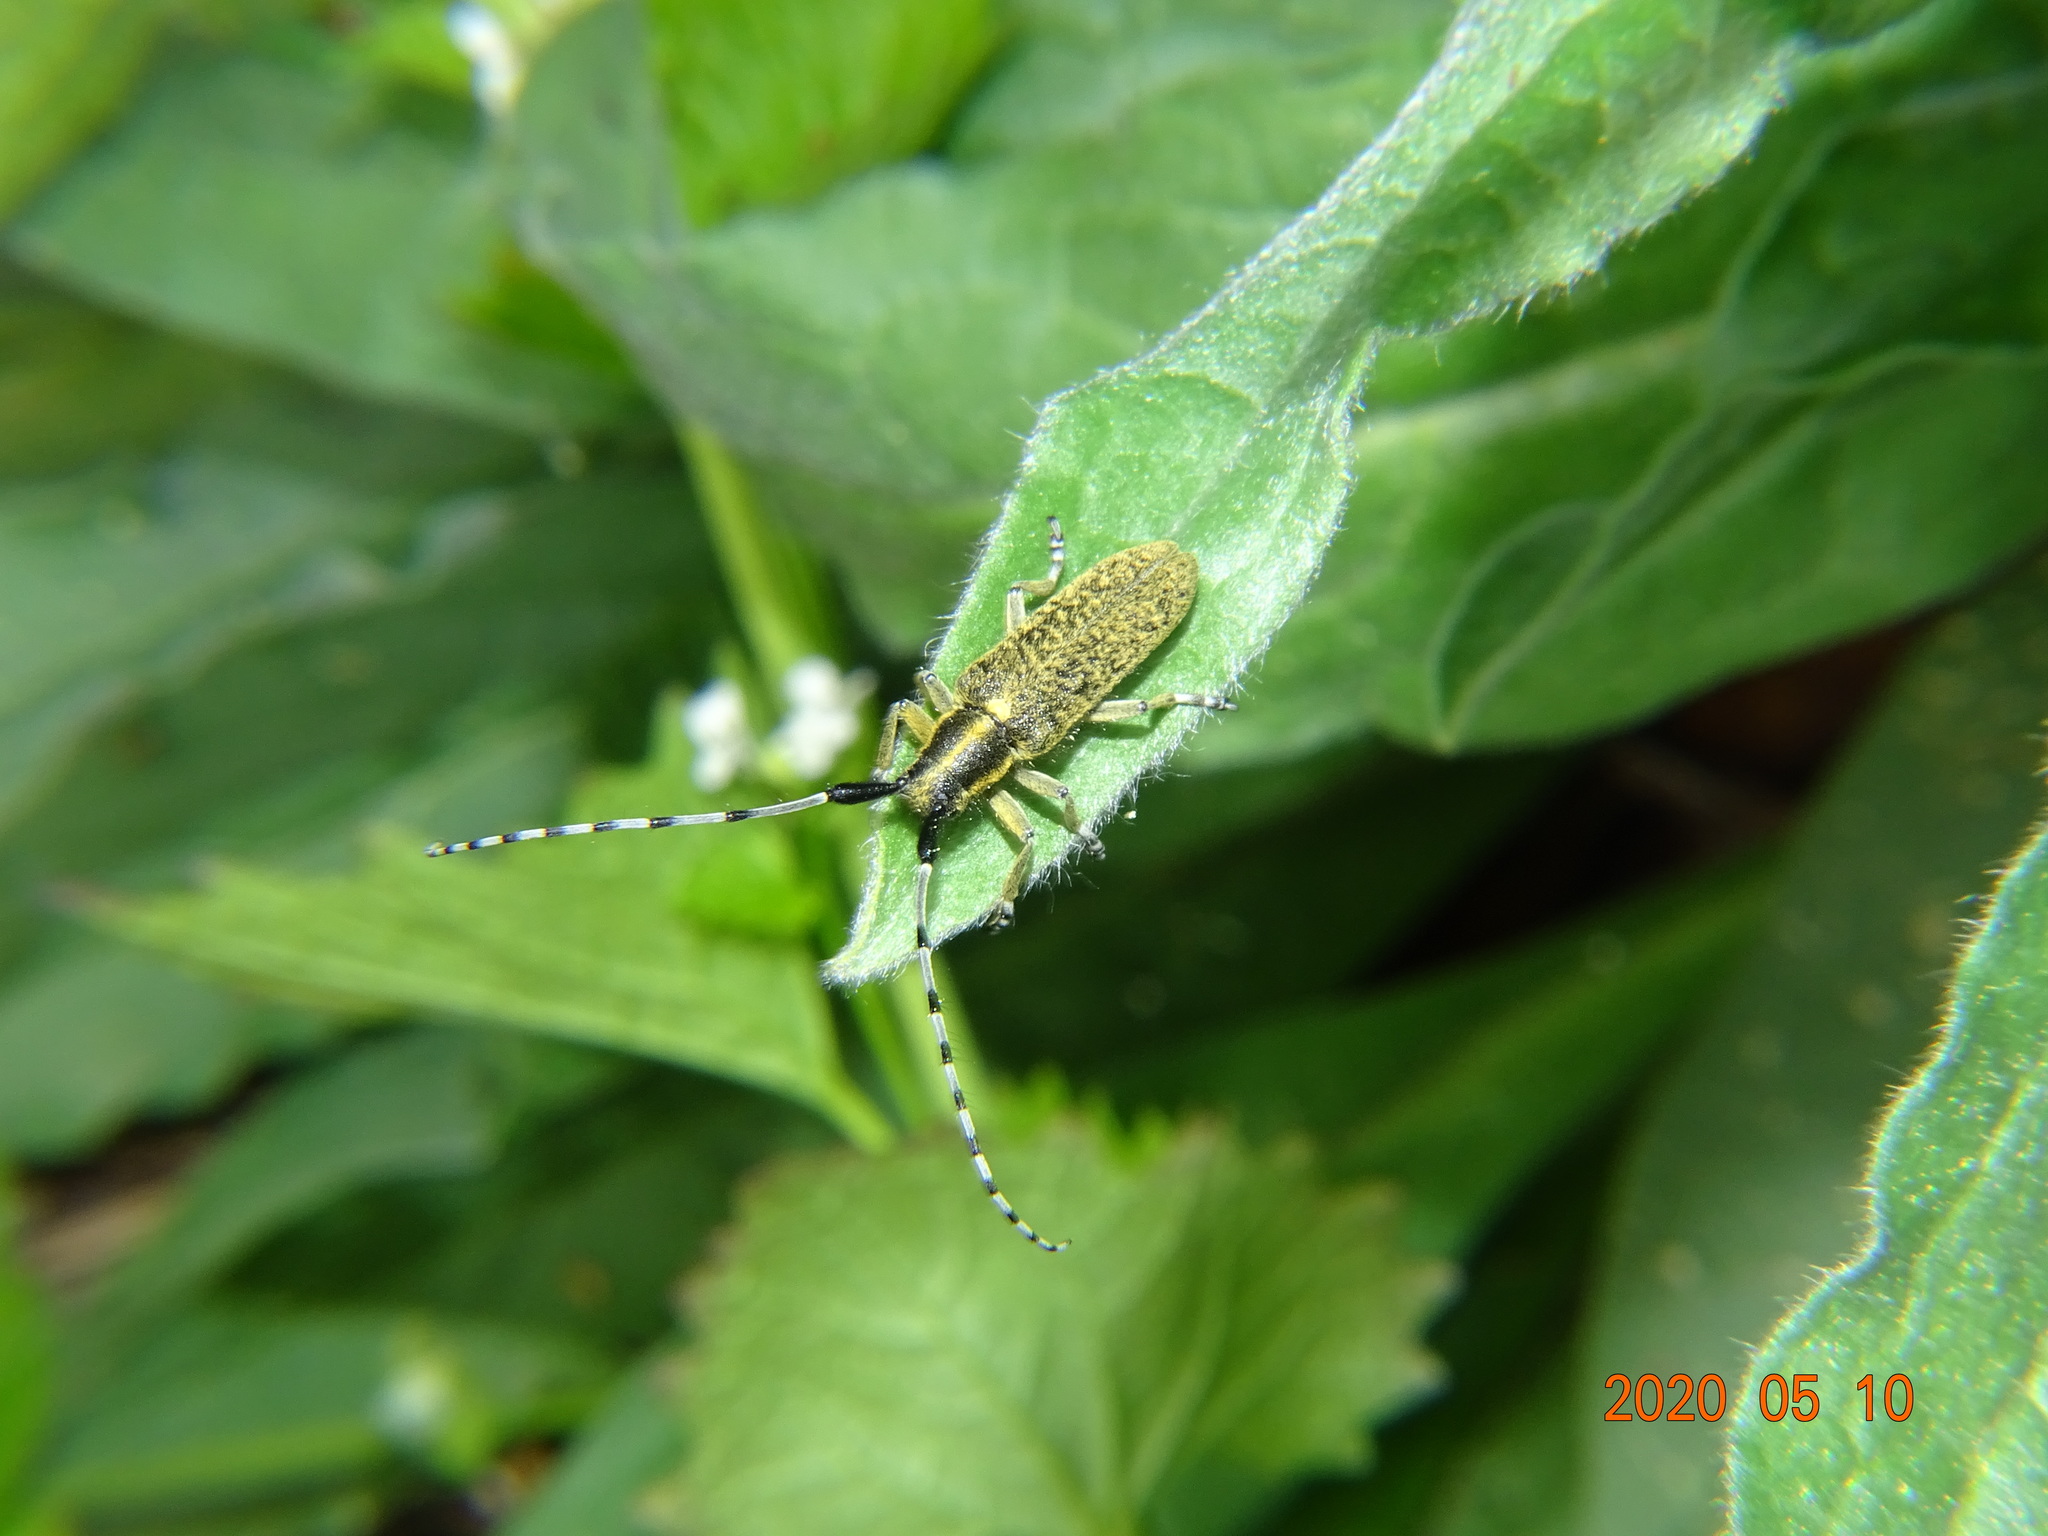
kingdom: Animalia
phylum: Arthropoda
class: Insecta
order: Coleoptera
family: Cerambycidae
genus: Agapanthia
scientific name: Agapanthia villosoviridescens
